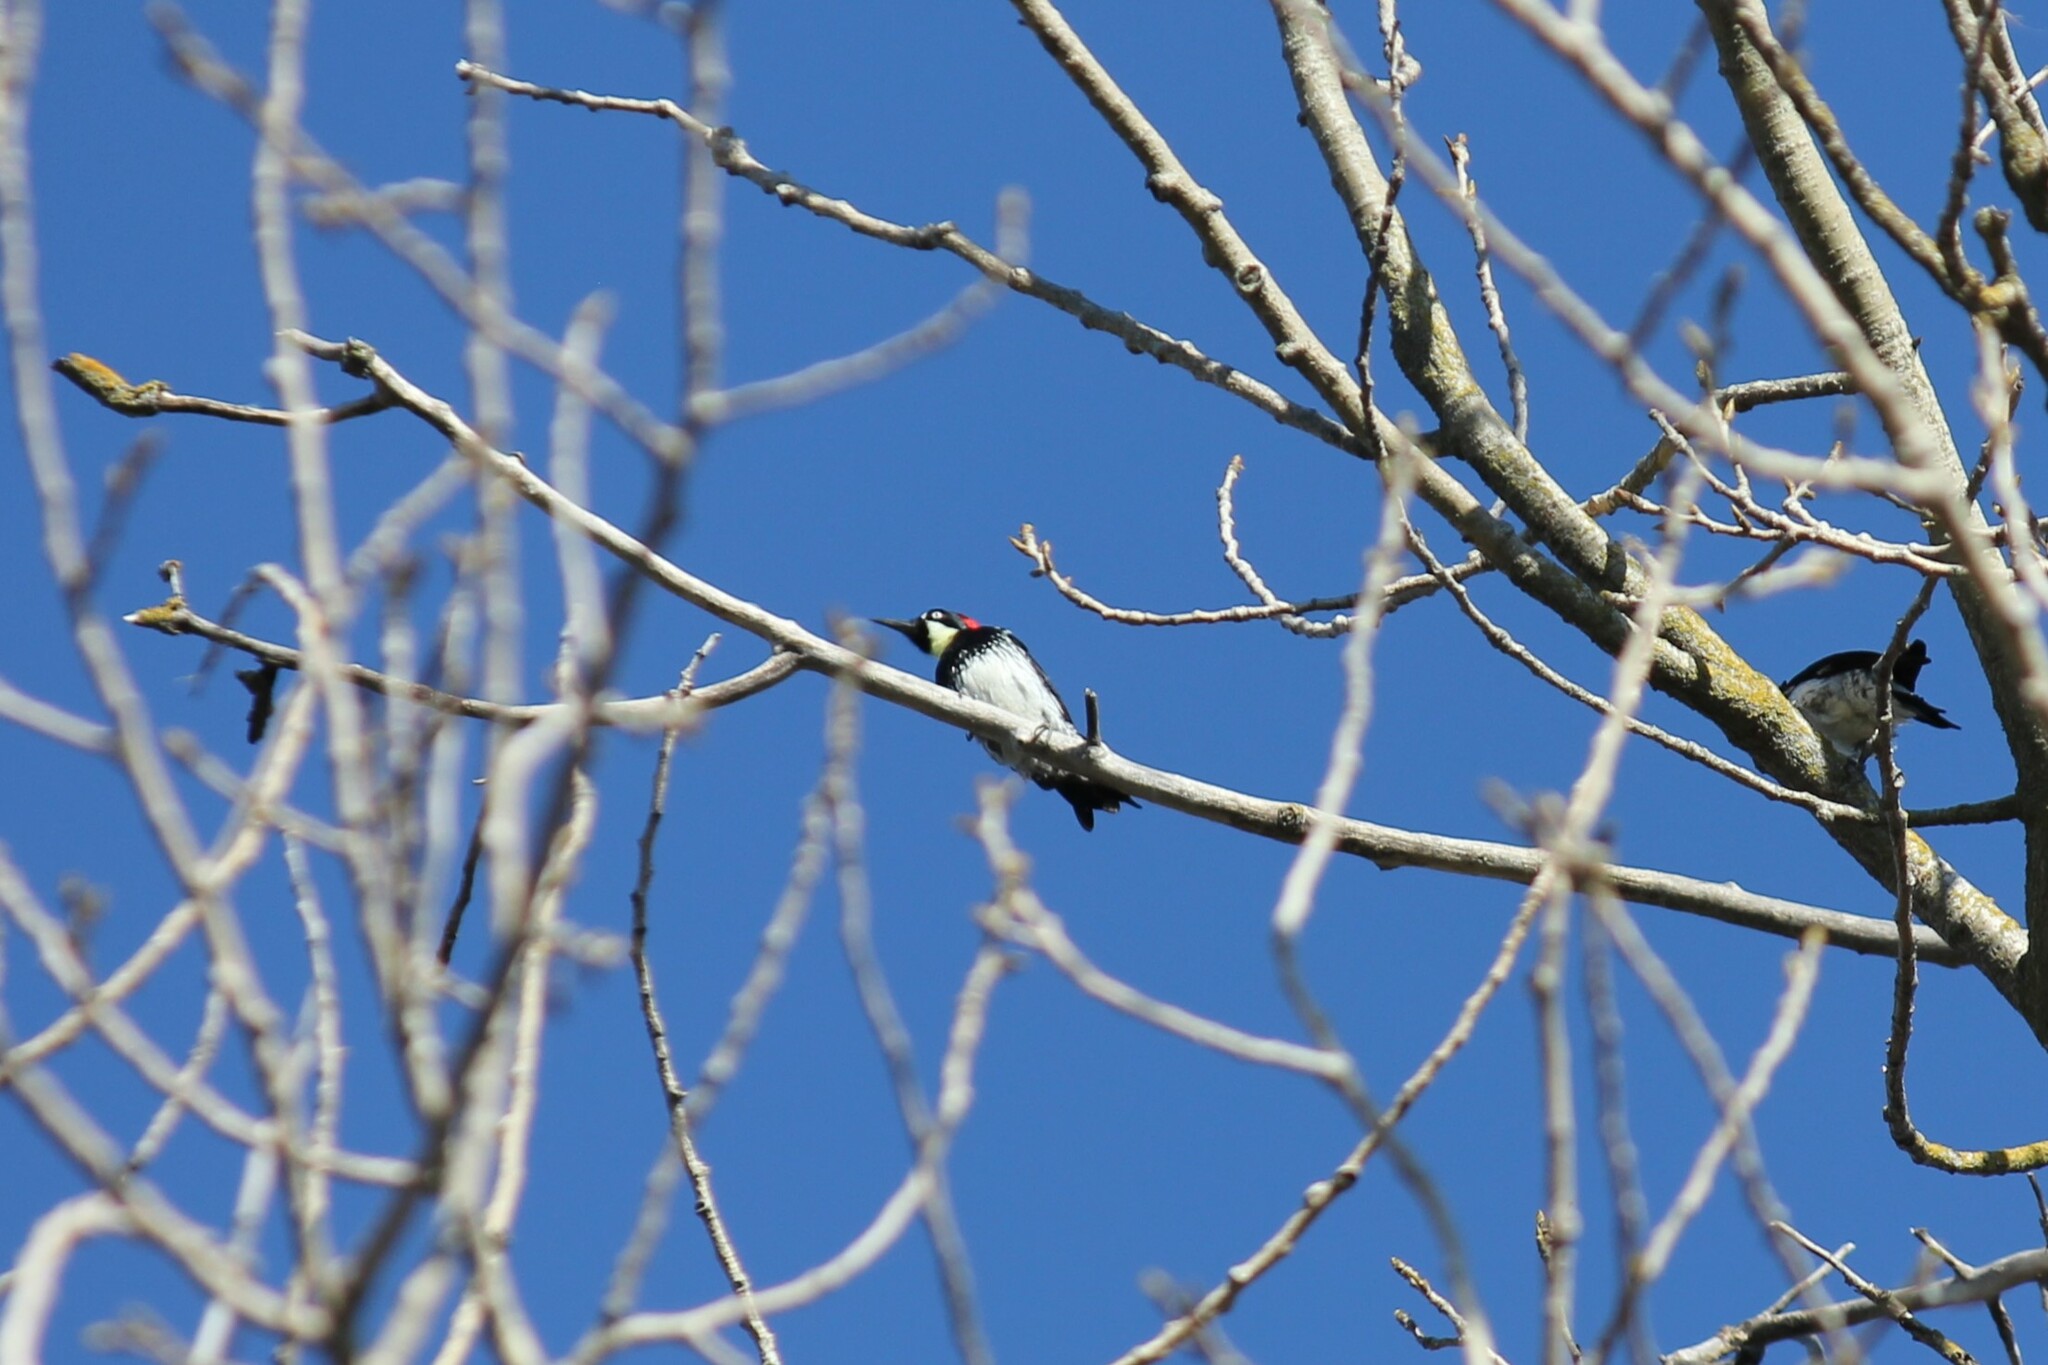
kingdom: Animalia
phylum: Chordata
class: Aves
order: Piciformes
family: Picidae
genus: Melanerpes
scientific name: Melanerpes formicivorus
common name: Acorn woodpecker
